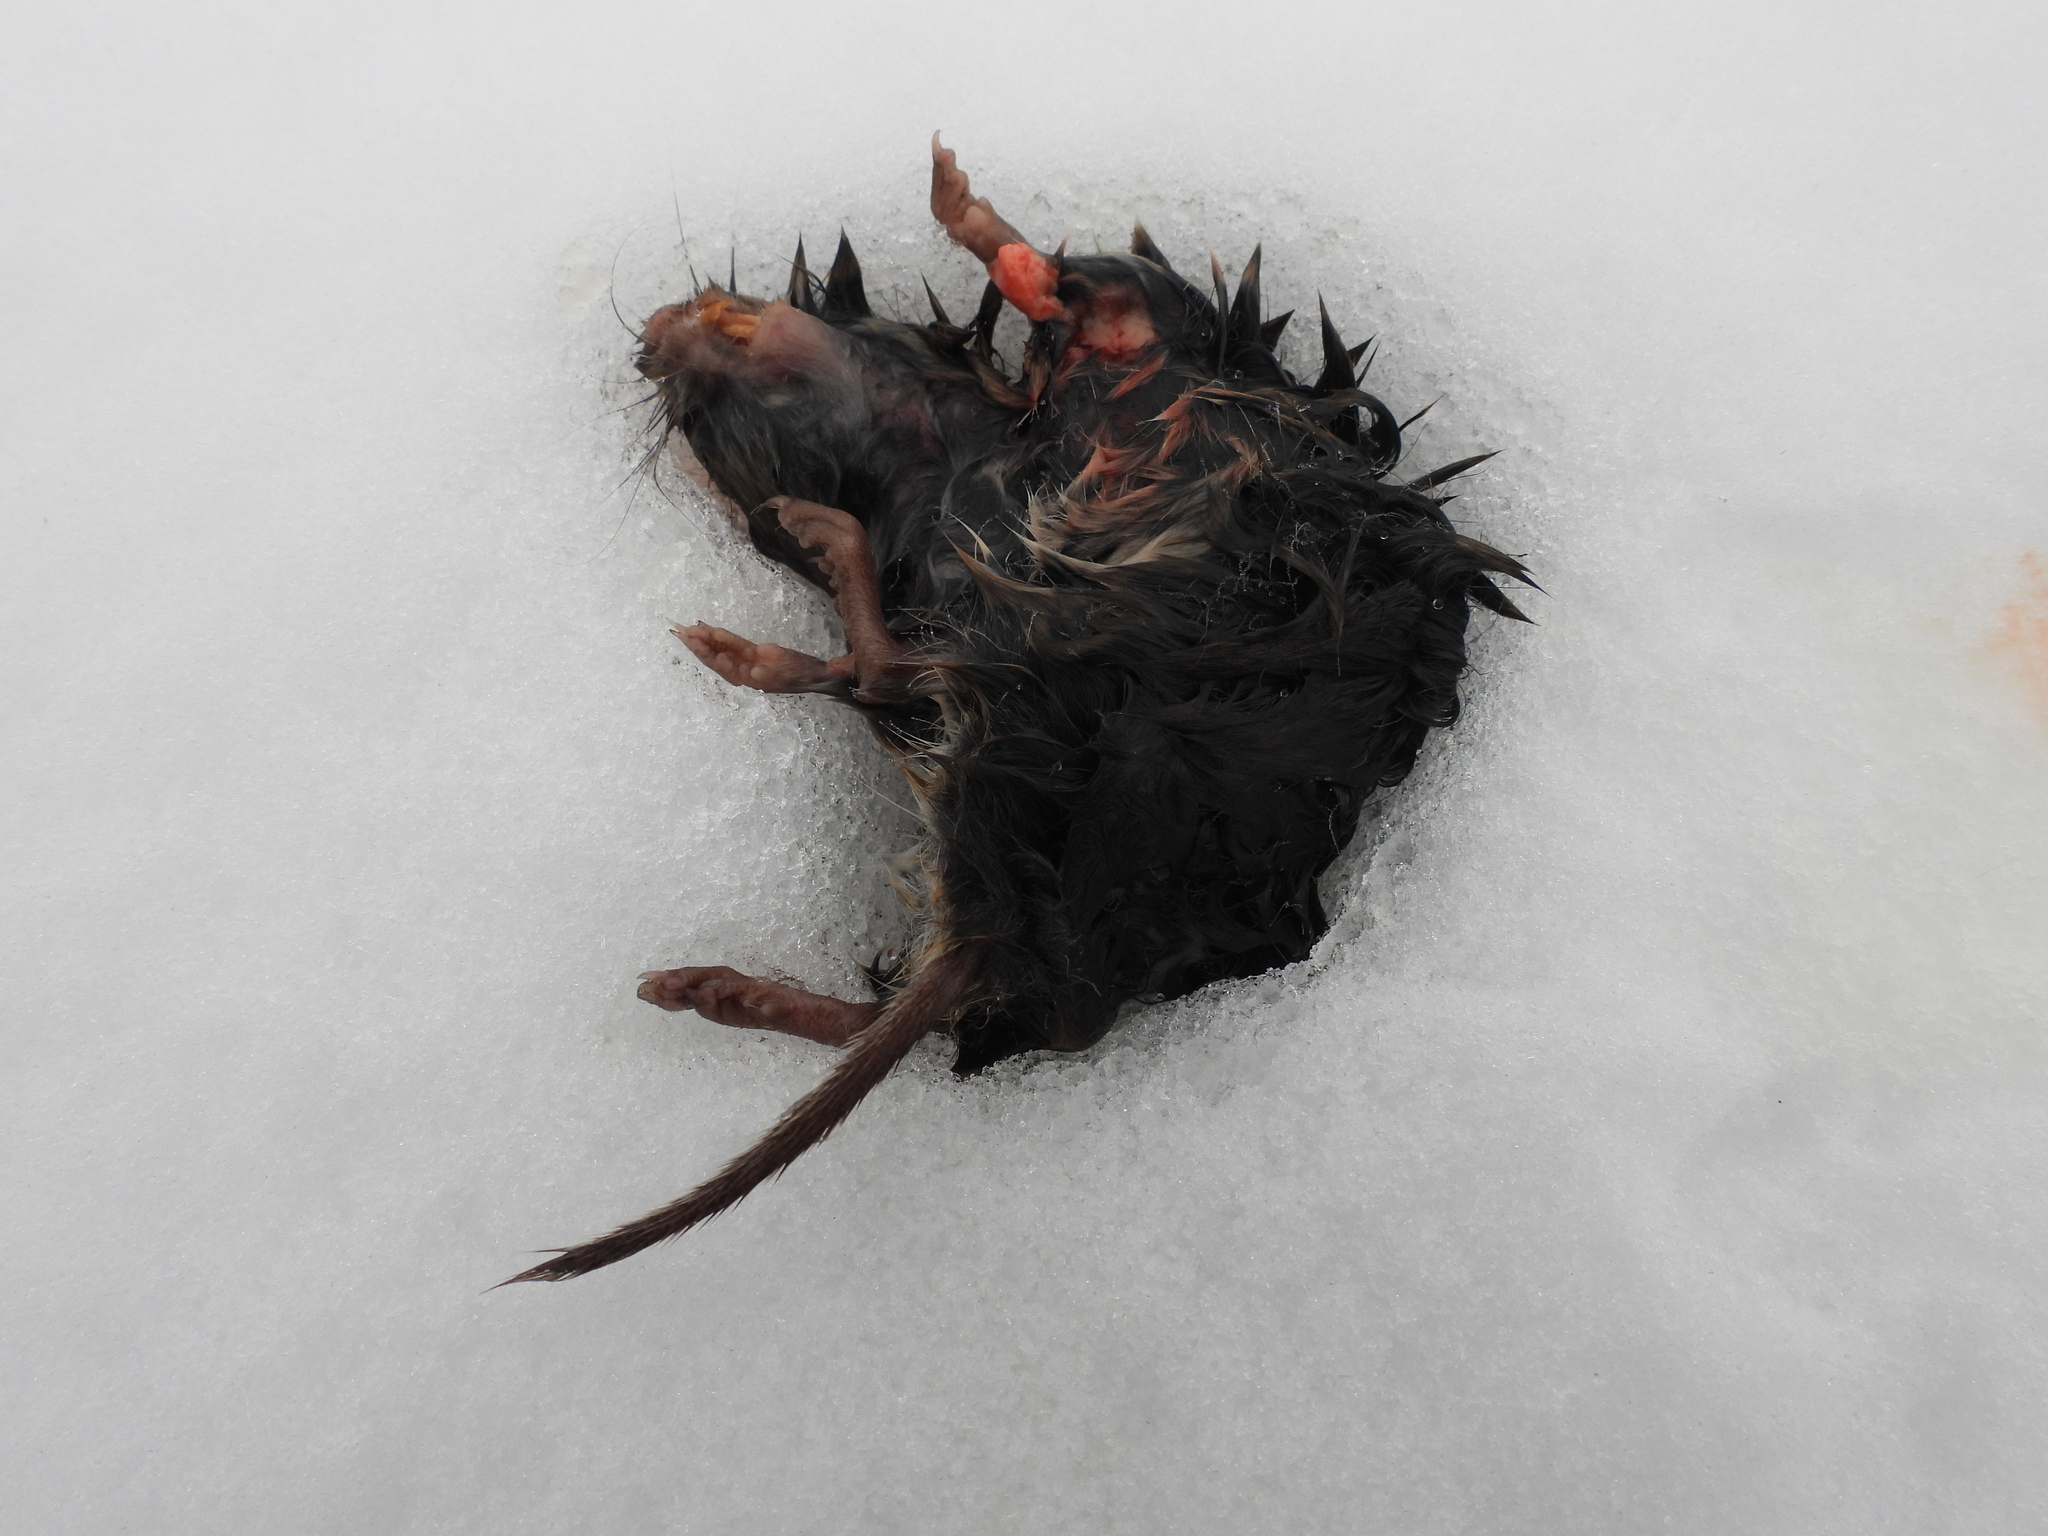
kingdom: Animalia
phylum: Chordata
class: Mammalia
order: Rodentia
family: Cricetidae
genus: Microtus
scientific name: Microtus pennsylvanicus
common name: Meadow vole
